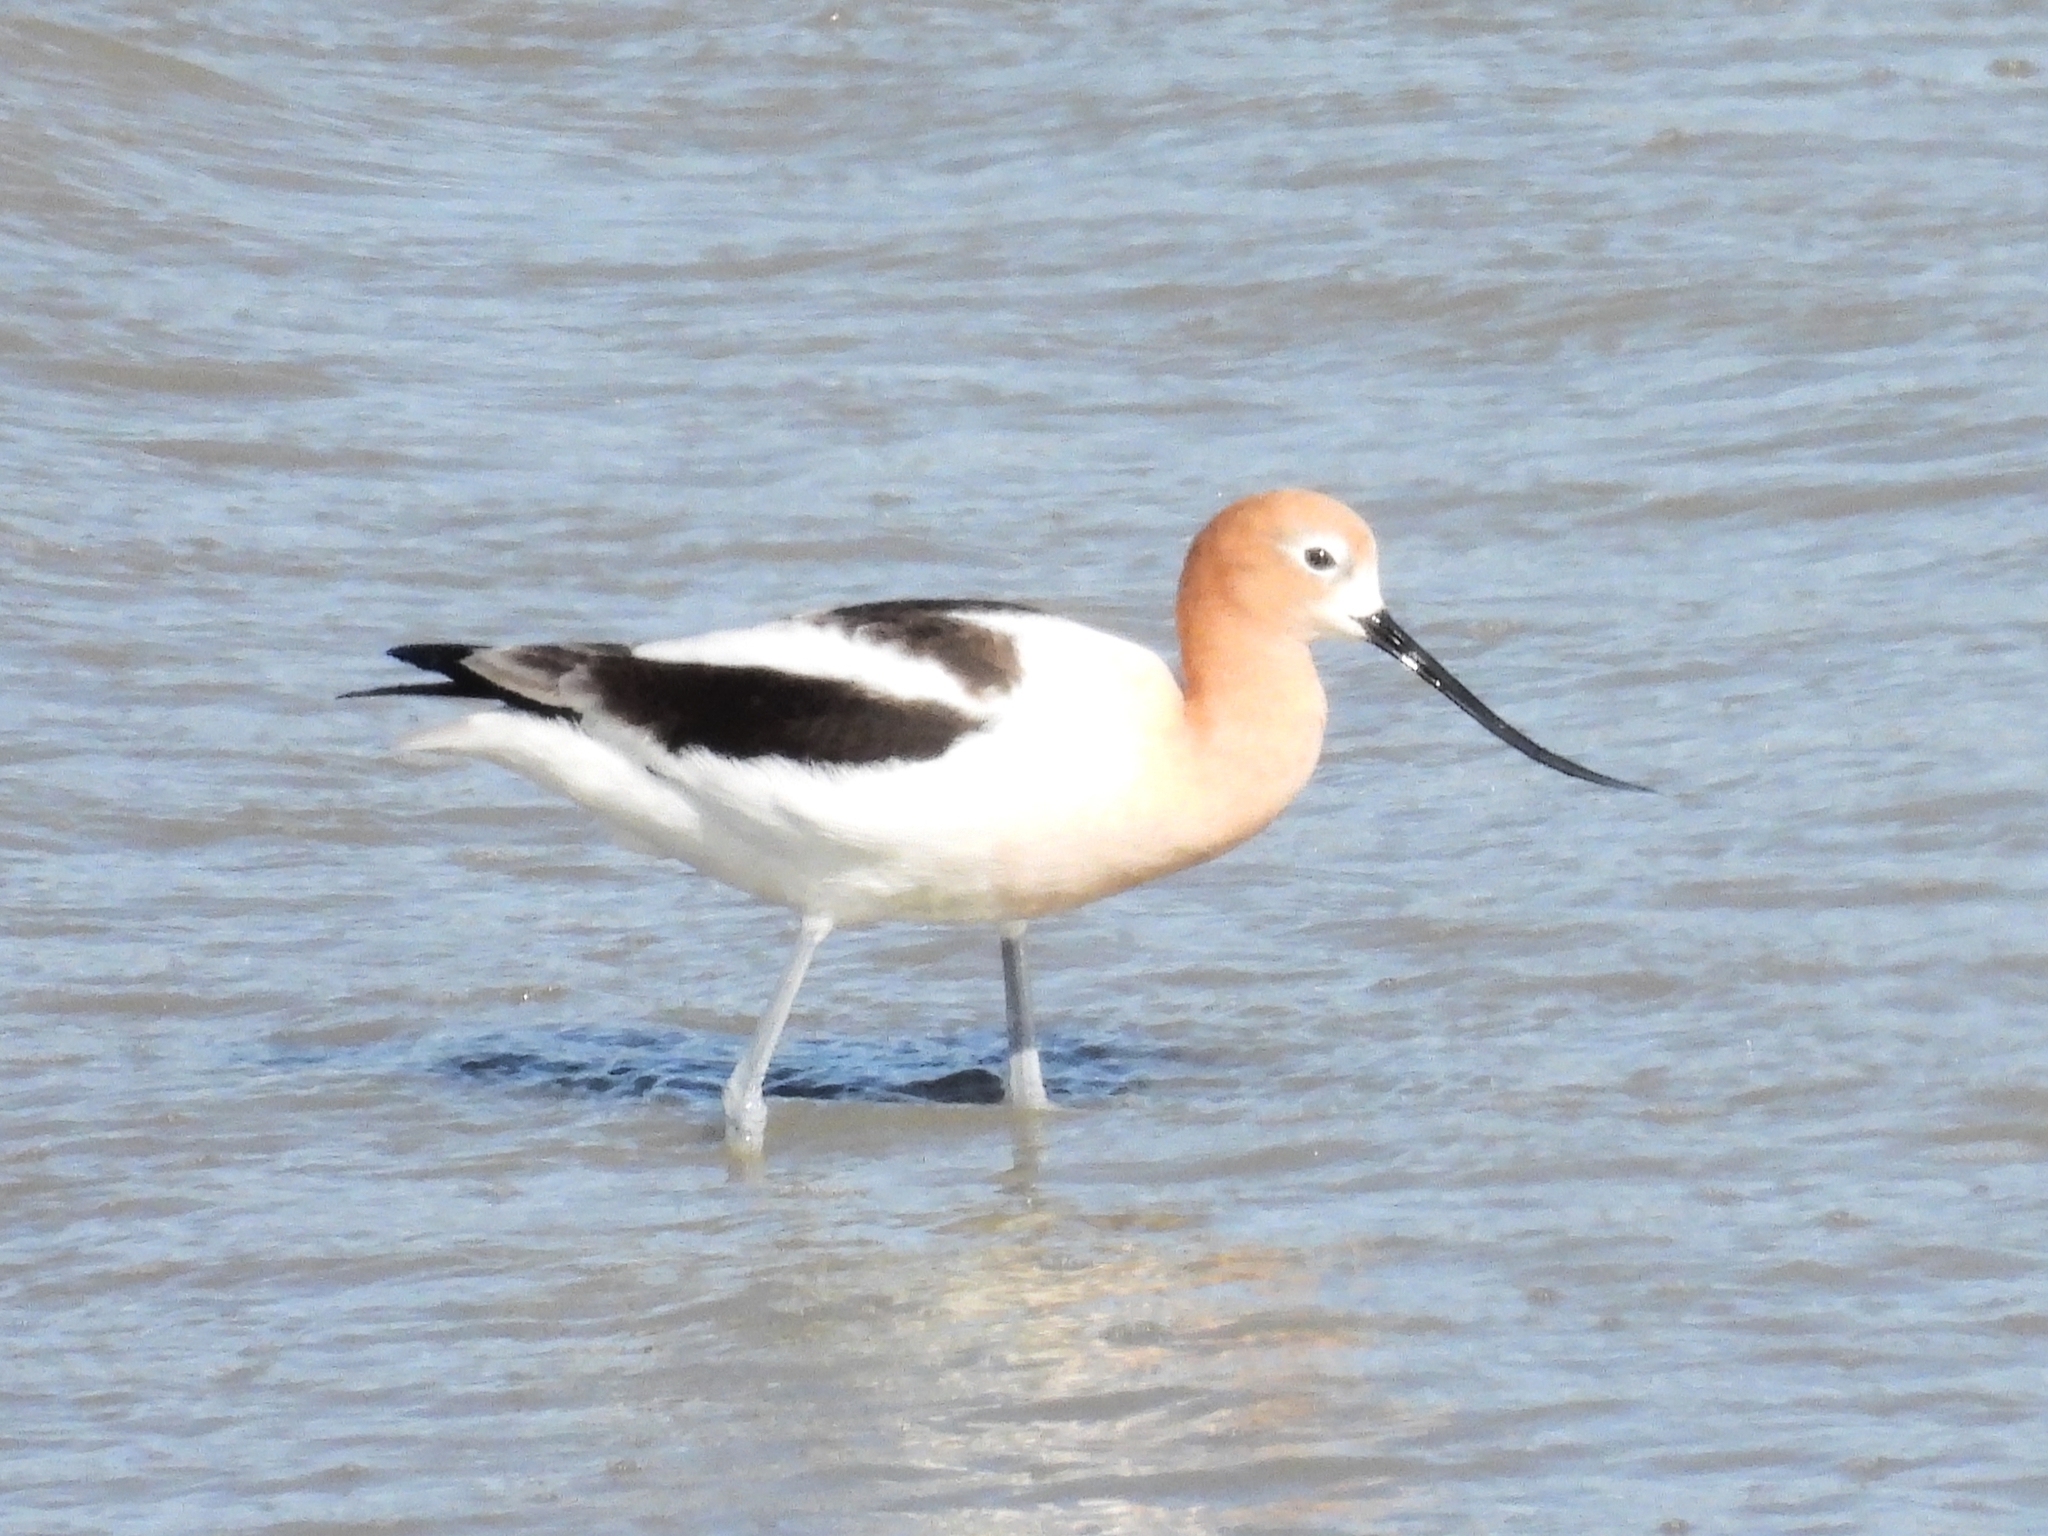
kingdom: Animalia
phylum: Chordata
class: Aves
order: Charadriiformes
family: Recurvirostridae
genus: Recurvirostra
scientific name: Recurvirostra americana
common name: American avocet
